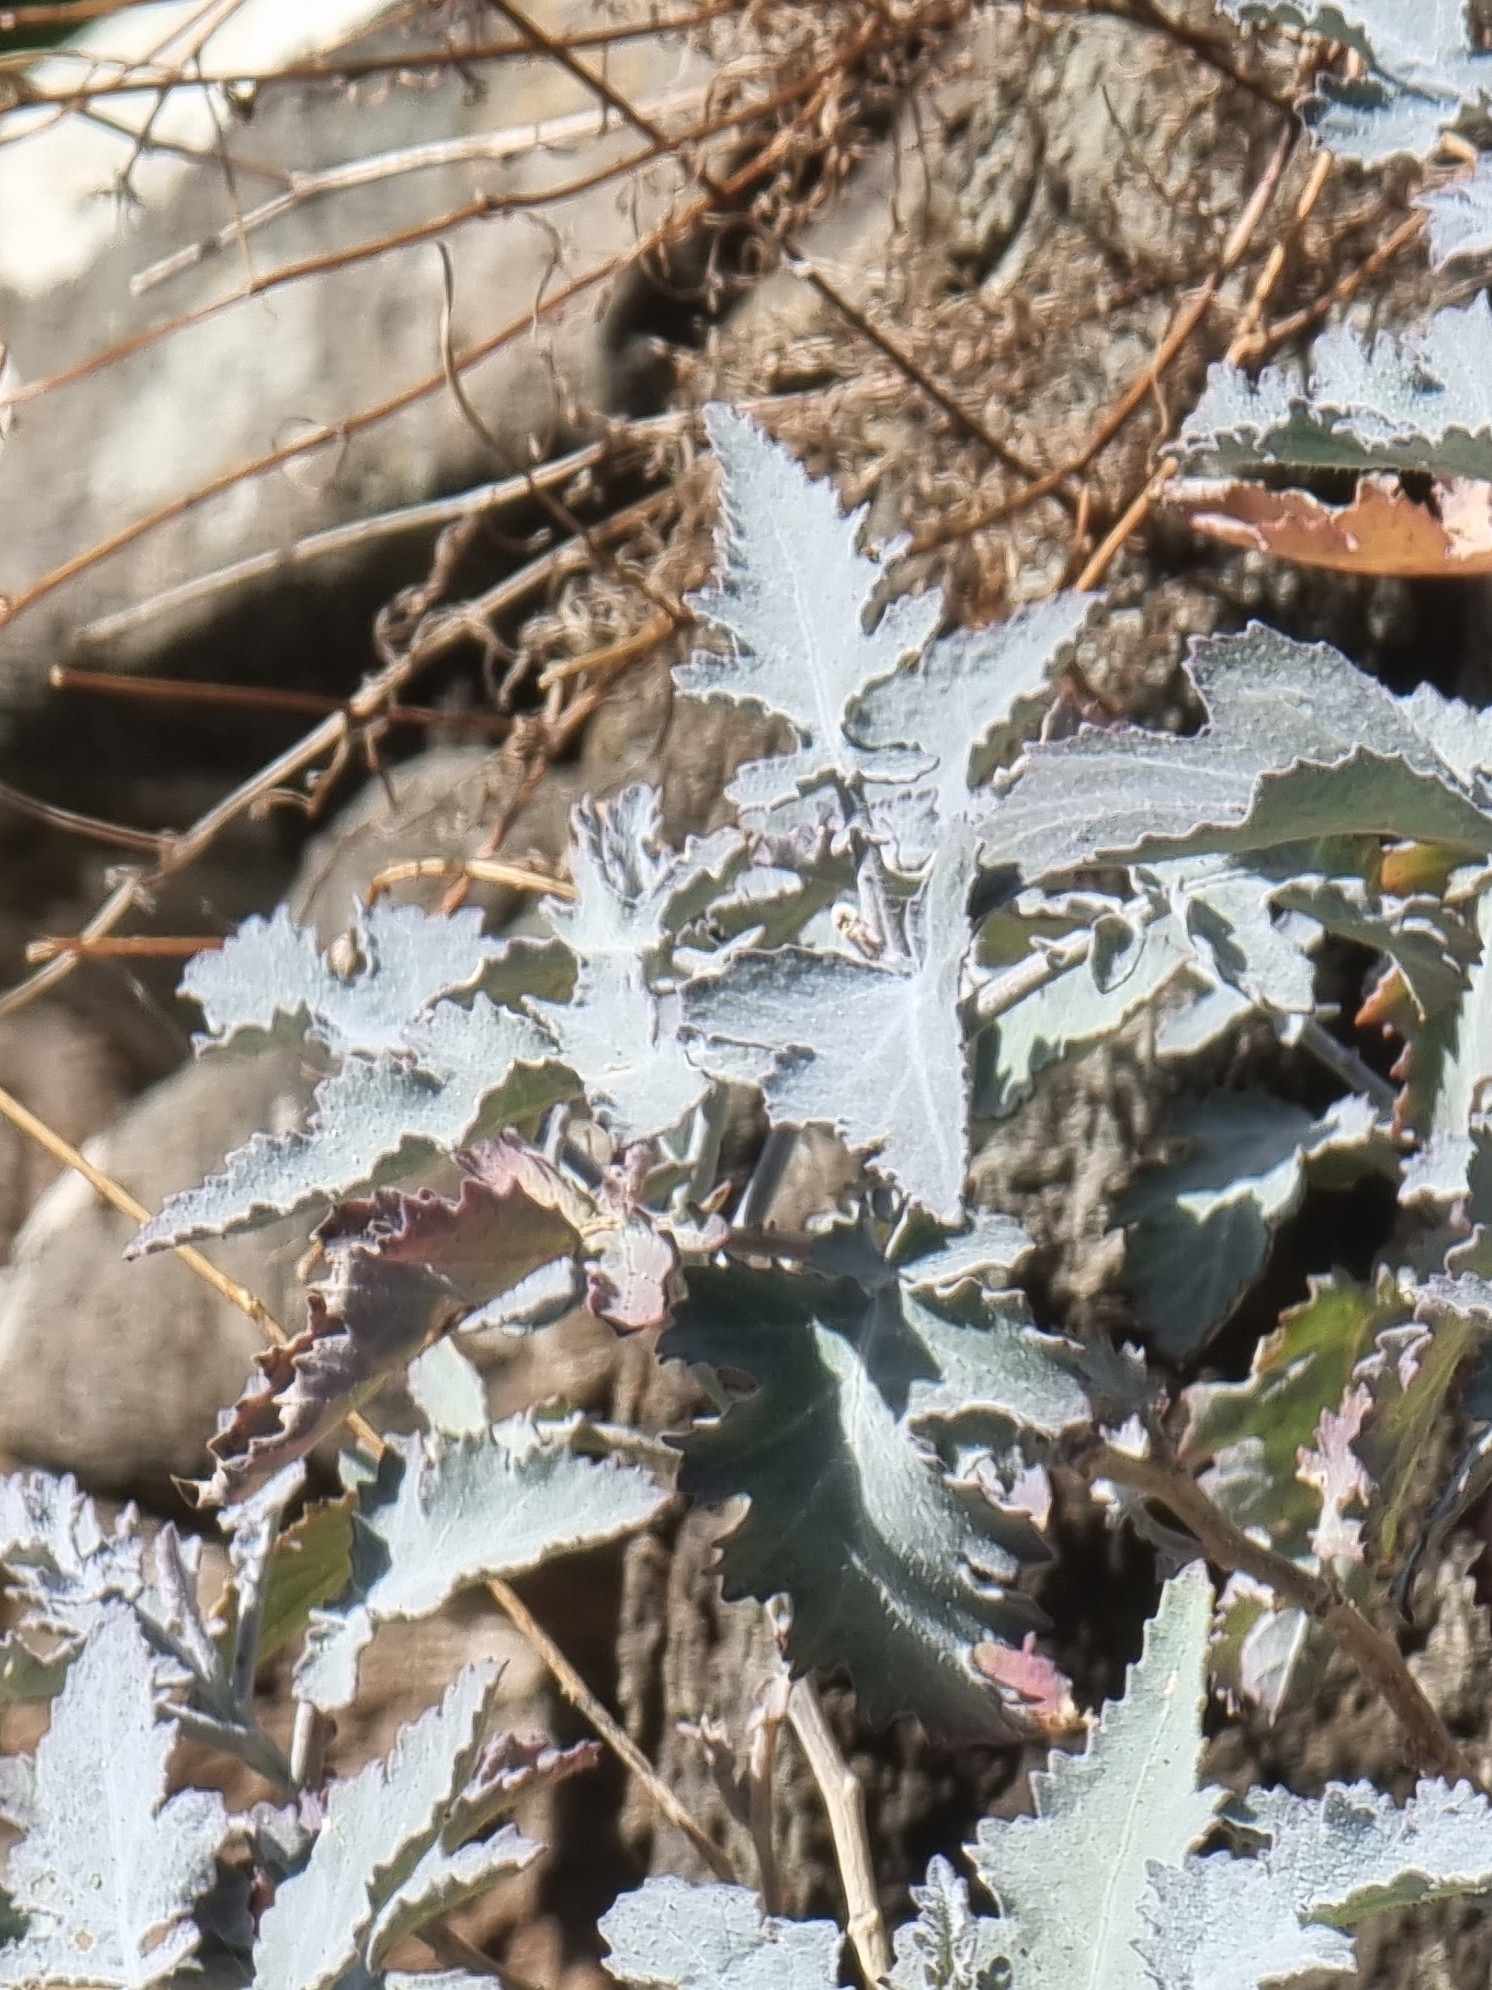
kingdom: Plantae
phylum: Tracheophyta
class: Magnoliopsida
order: Brassicales
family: Brassicaceae
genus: Crambe
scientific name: Crambe fruticosa
